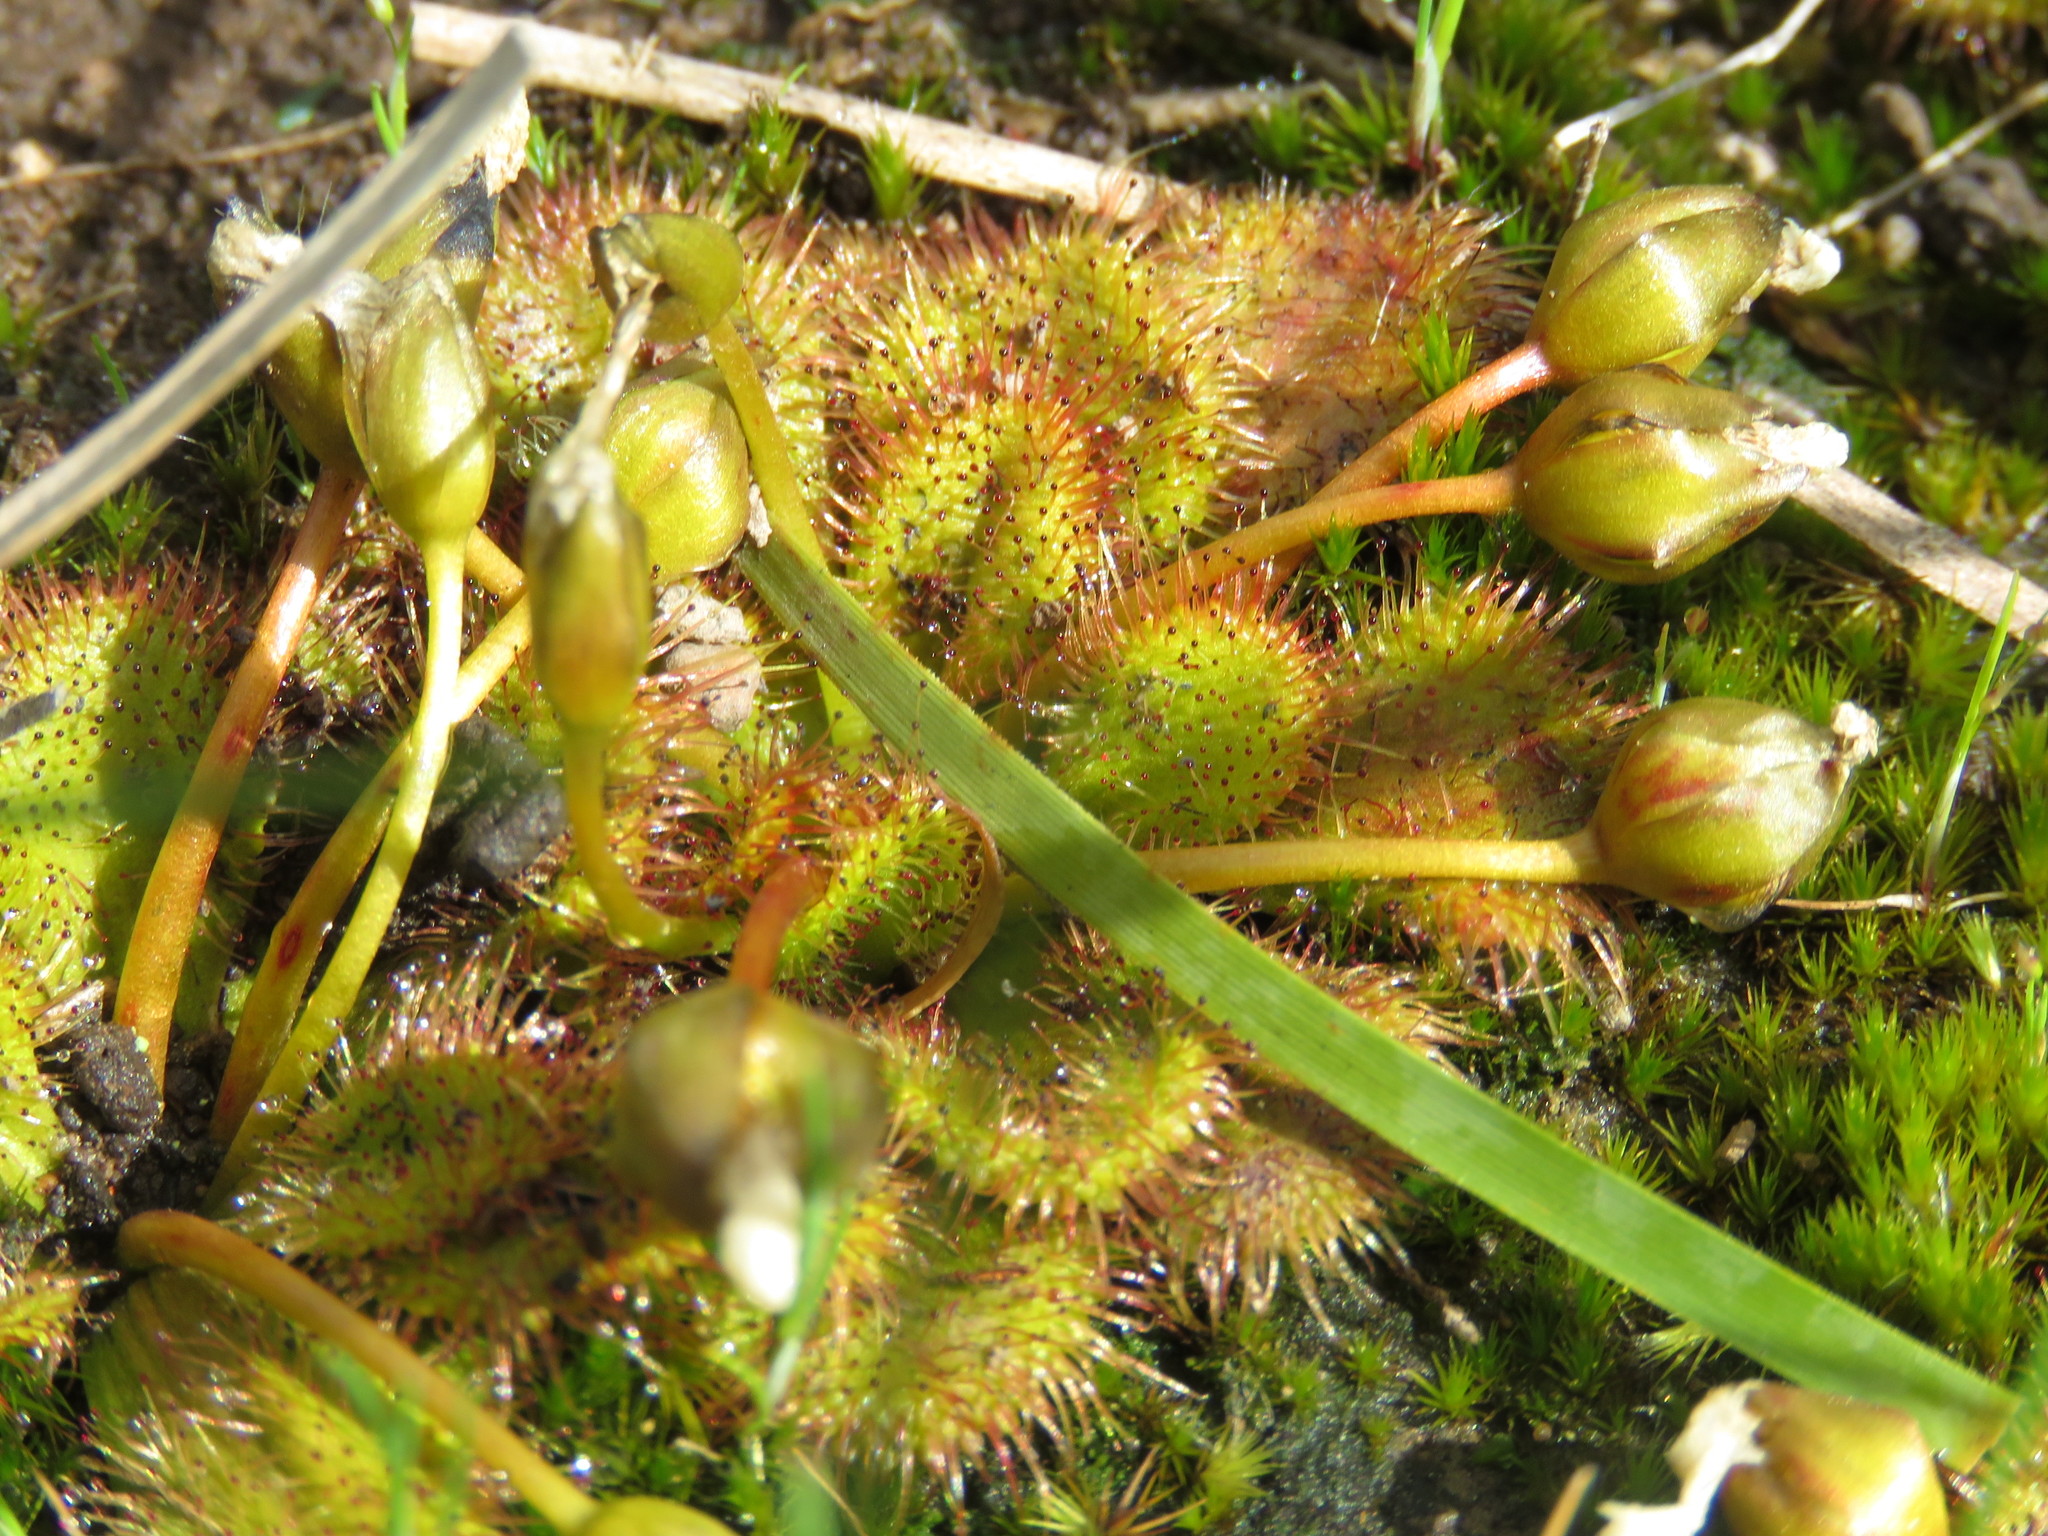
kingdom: Plantae
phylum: Tracheophyta
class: Magnoliopsida
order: Caryophyllales
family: Droseraceae
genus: Drosera
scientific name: Drosera aberrans
